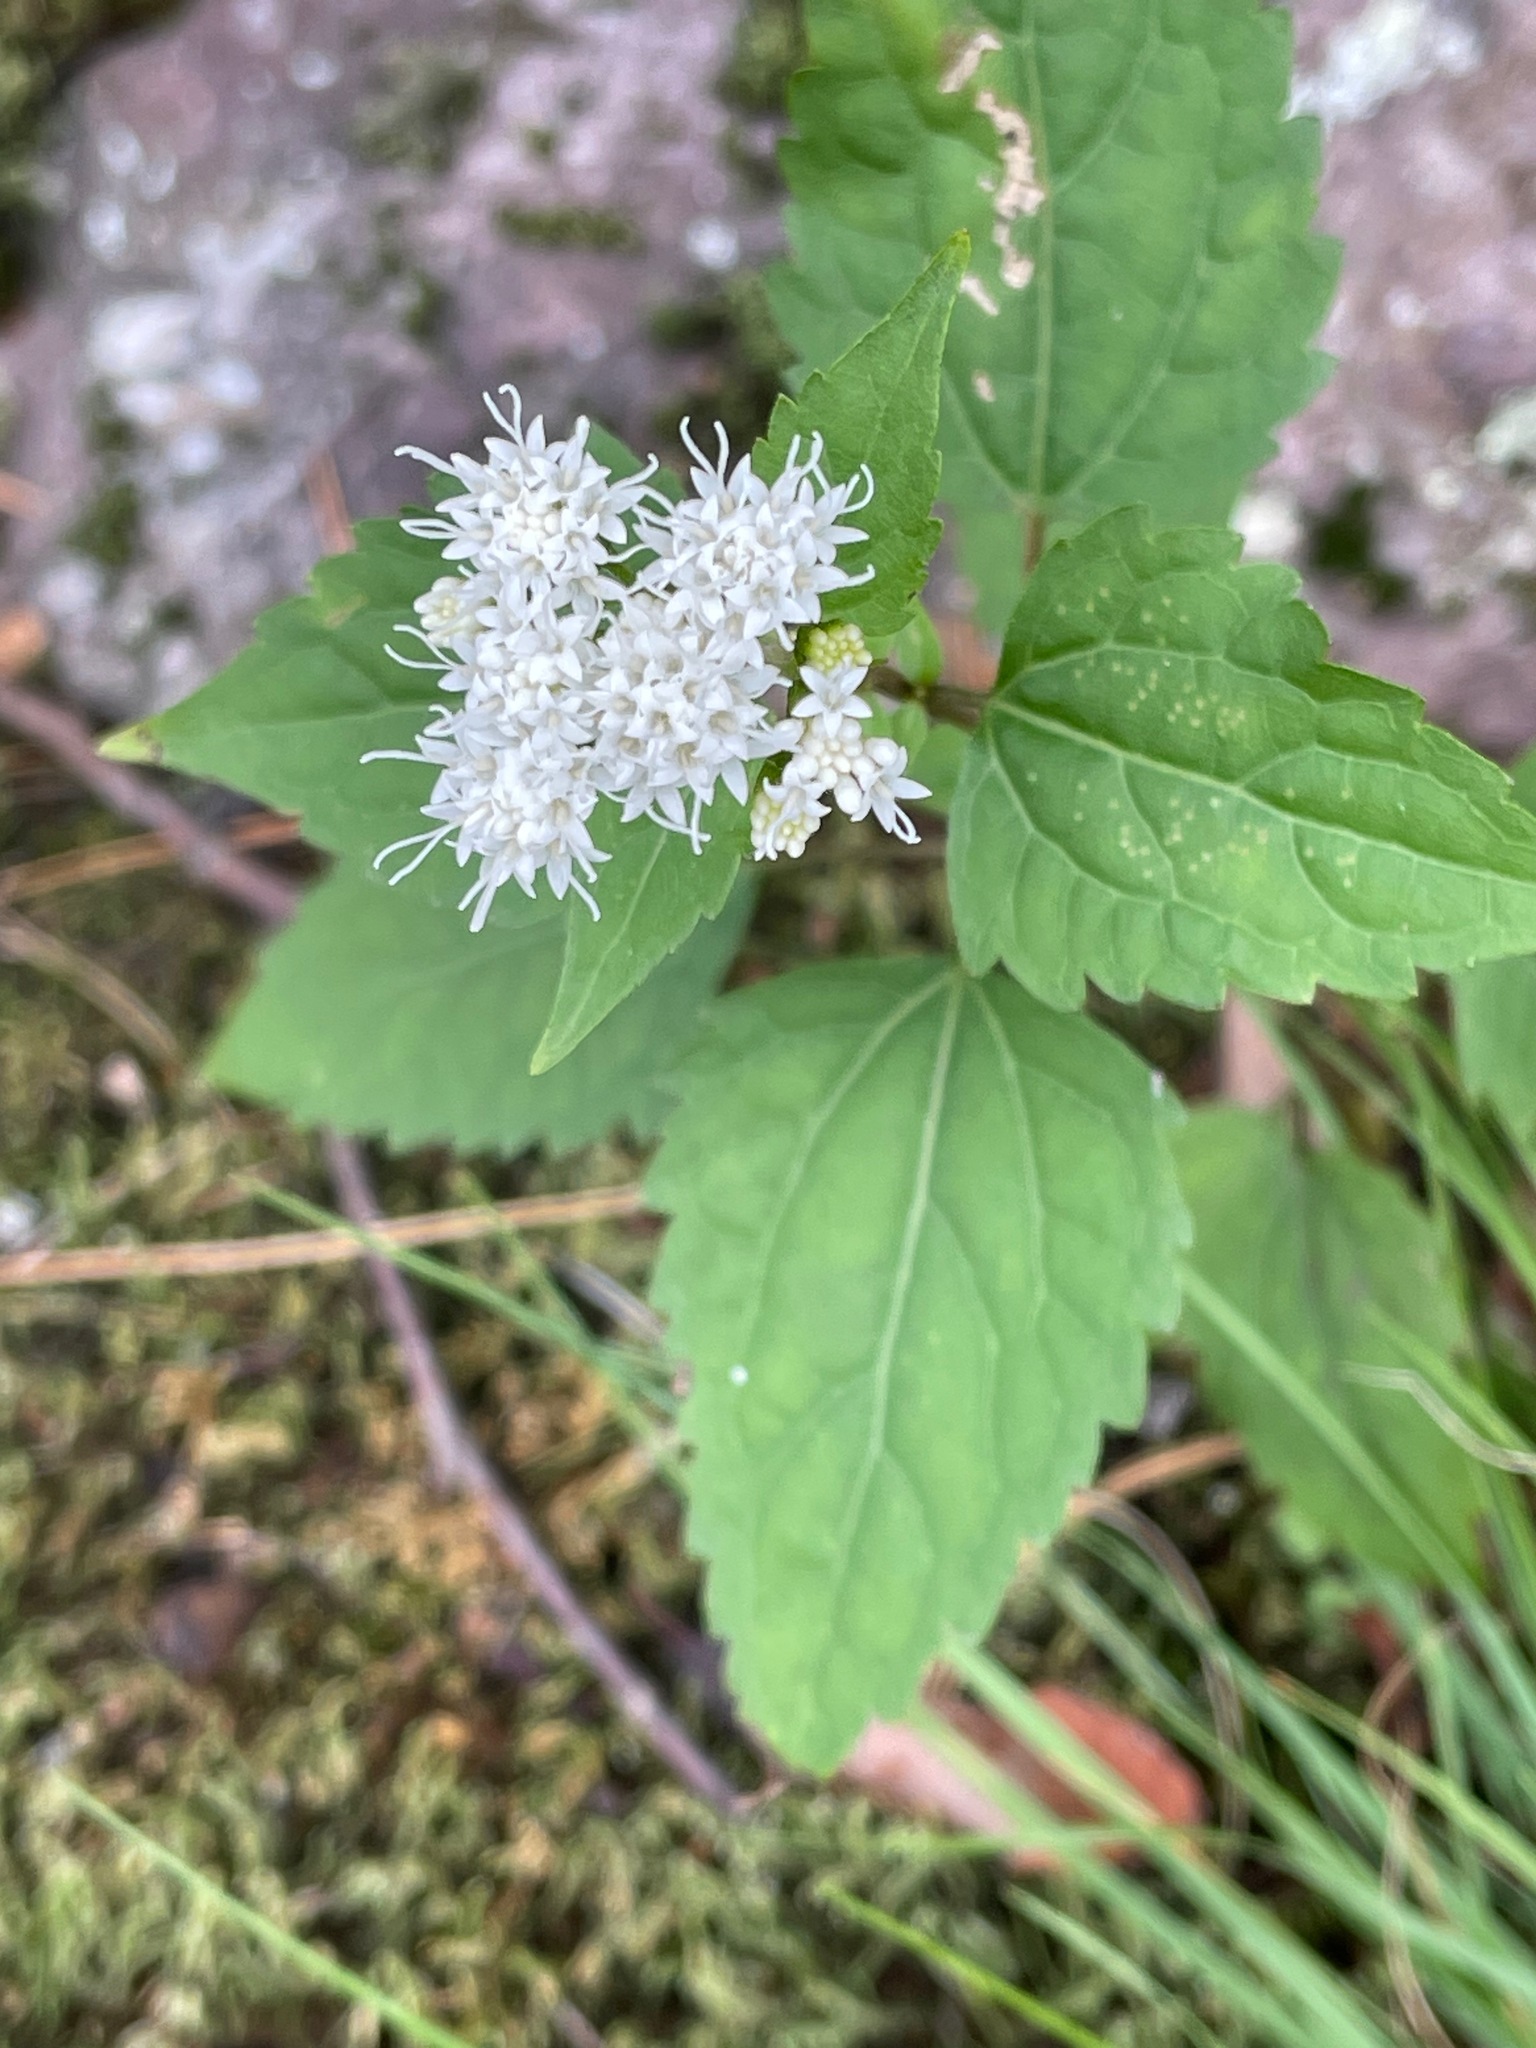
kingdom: Plantae
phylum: Tracheophyta
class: Magnoliopsida
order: Asterales
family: Asteraceae
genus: Ageratina
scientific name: Ageratina altissima
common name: White snakeroot
